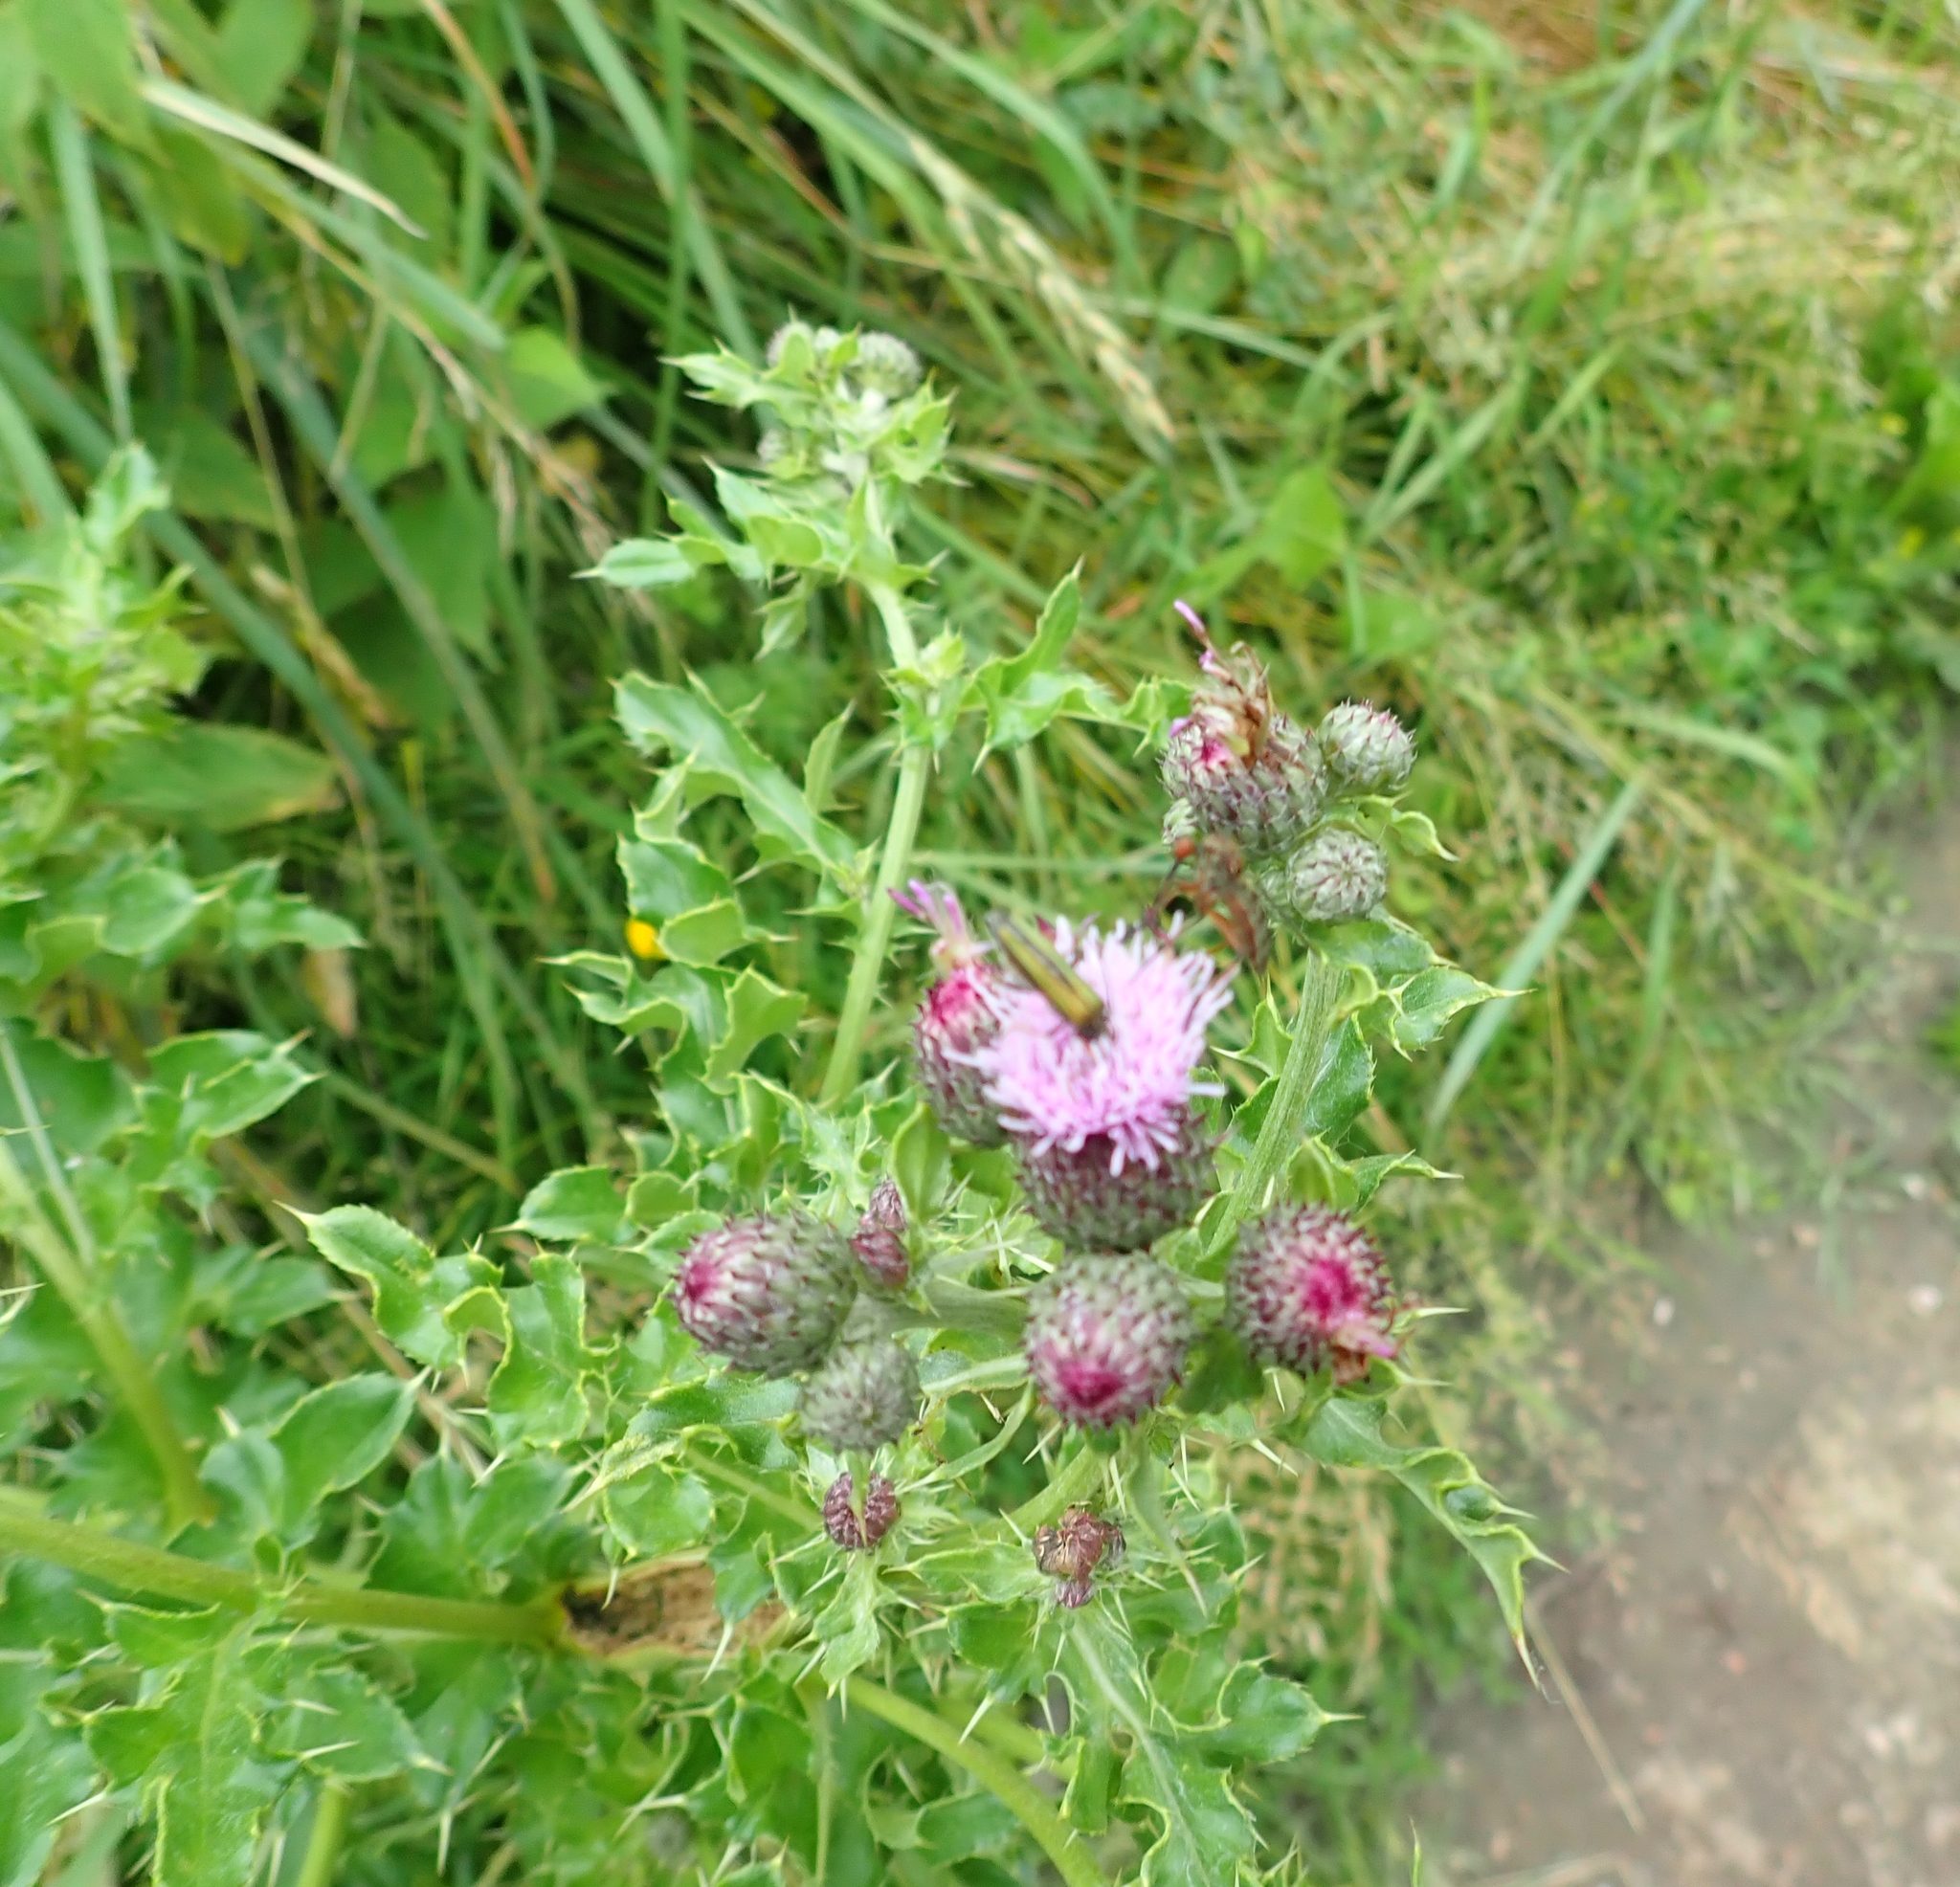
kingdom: Plantae
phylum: Tracheophyta
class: Magnoliopsida
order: Asterales
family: Asteraceae
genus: Cirsium
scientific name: Cirsium arvense
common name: Creeping thistle
